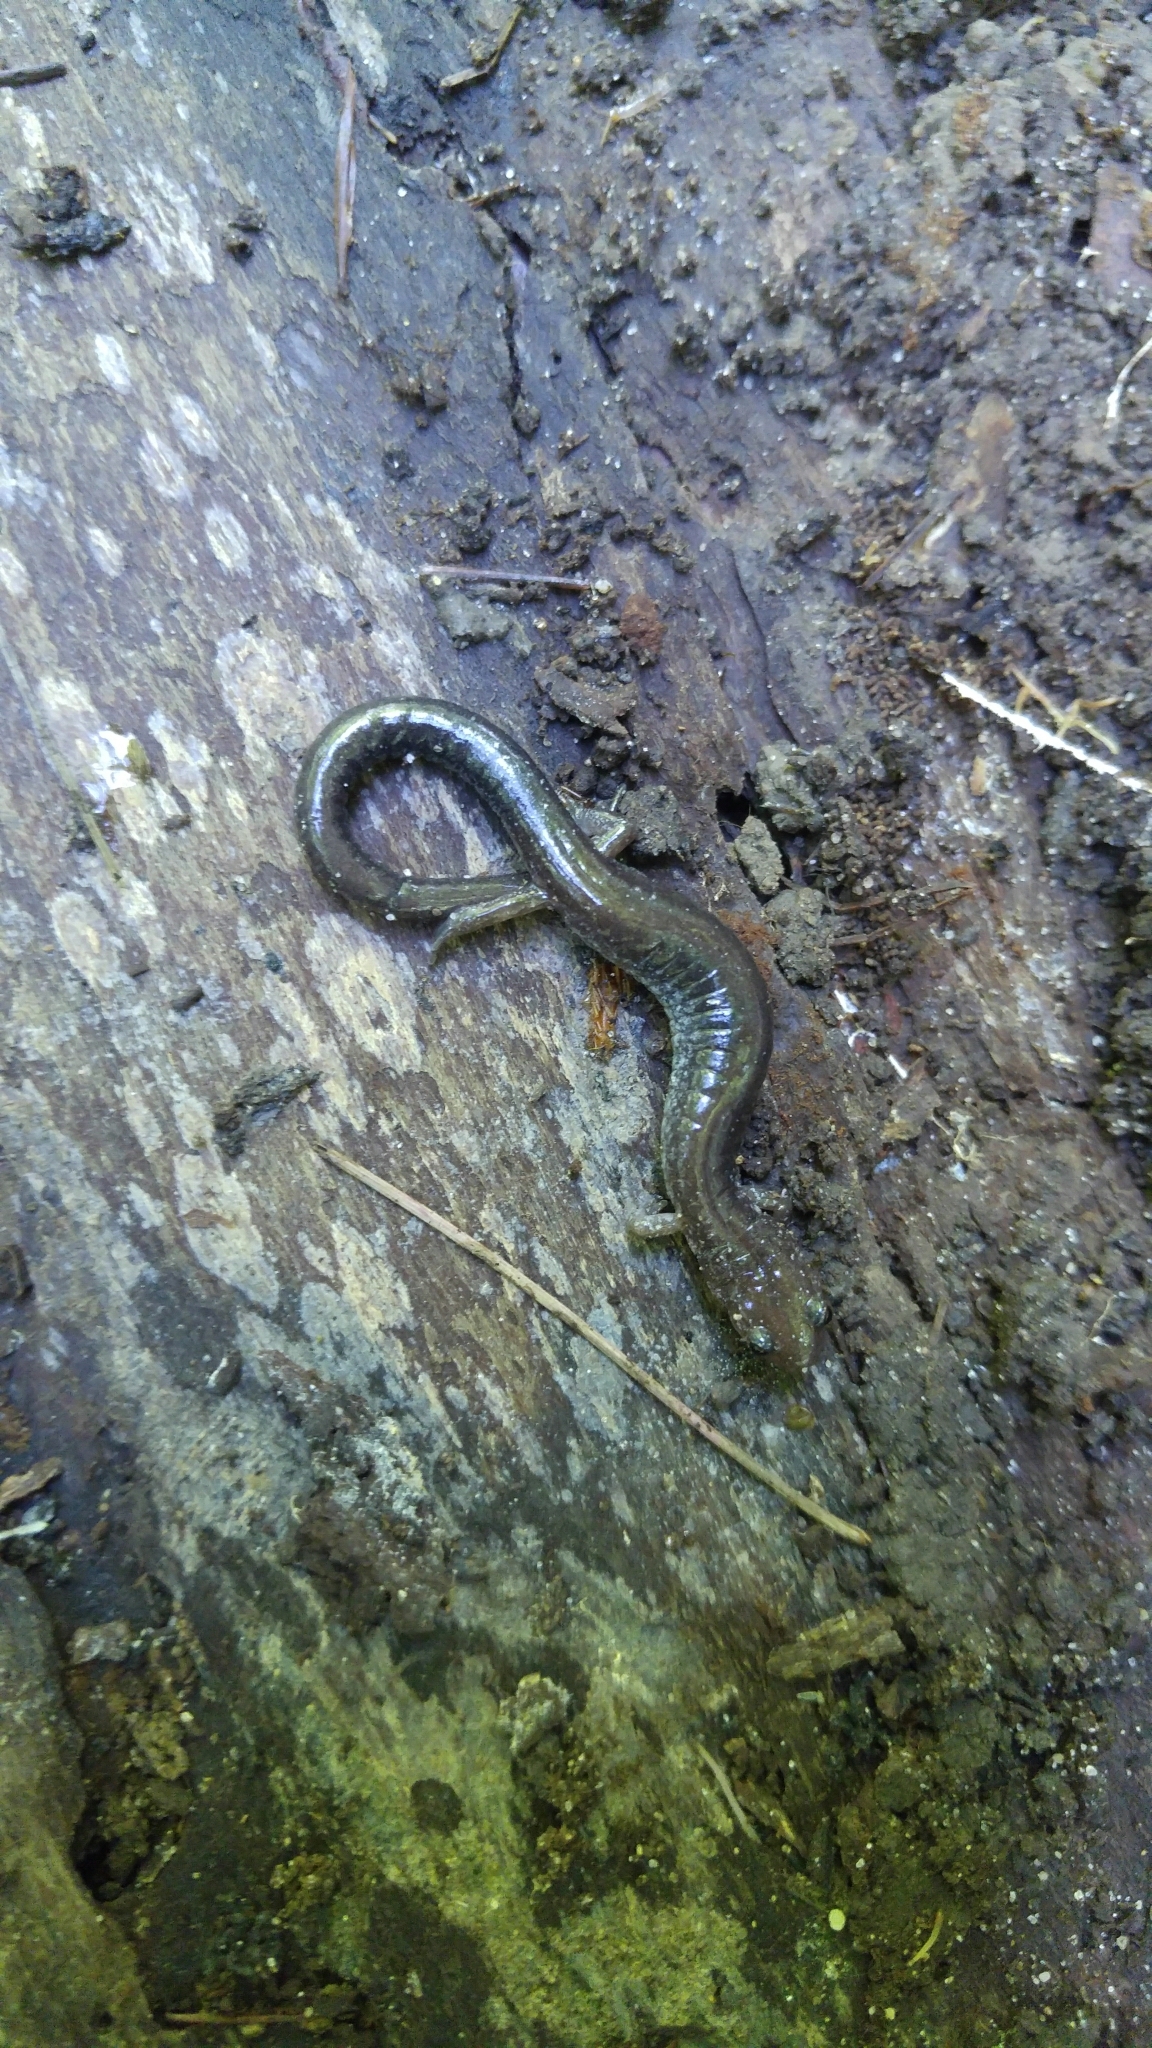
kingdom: Animalia
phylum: Chordata
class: Amphibia
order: Caudata
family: Plethodontidae
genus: Plethodon
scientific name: Plethodon cinereus
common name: Redback salamander
